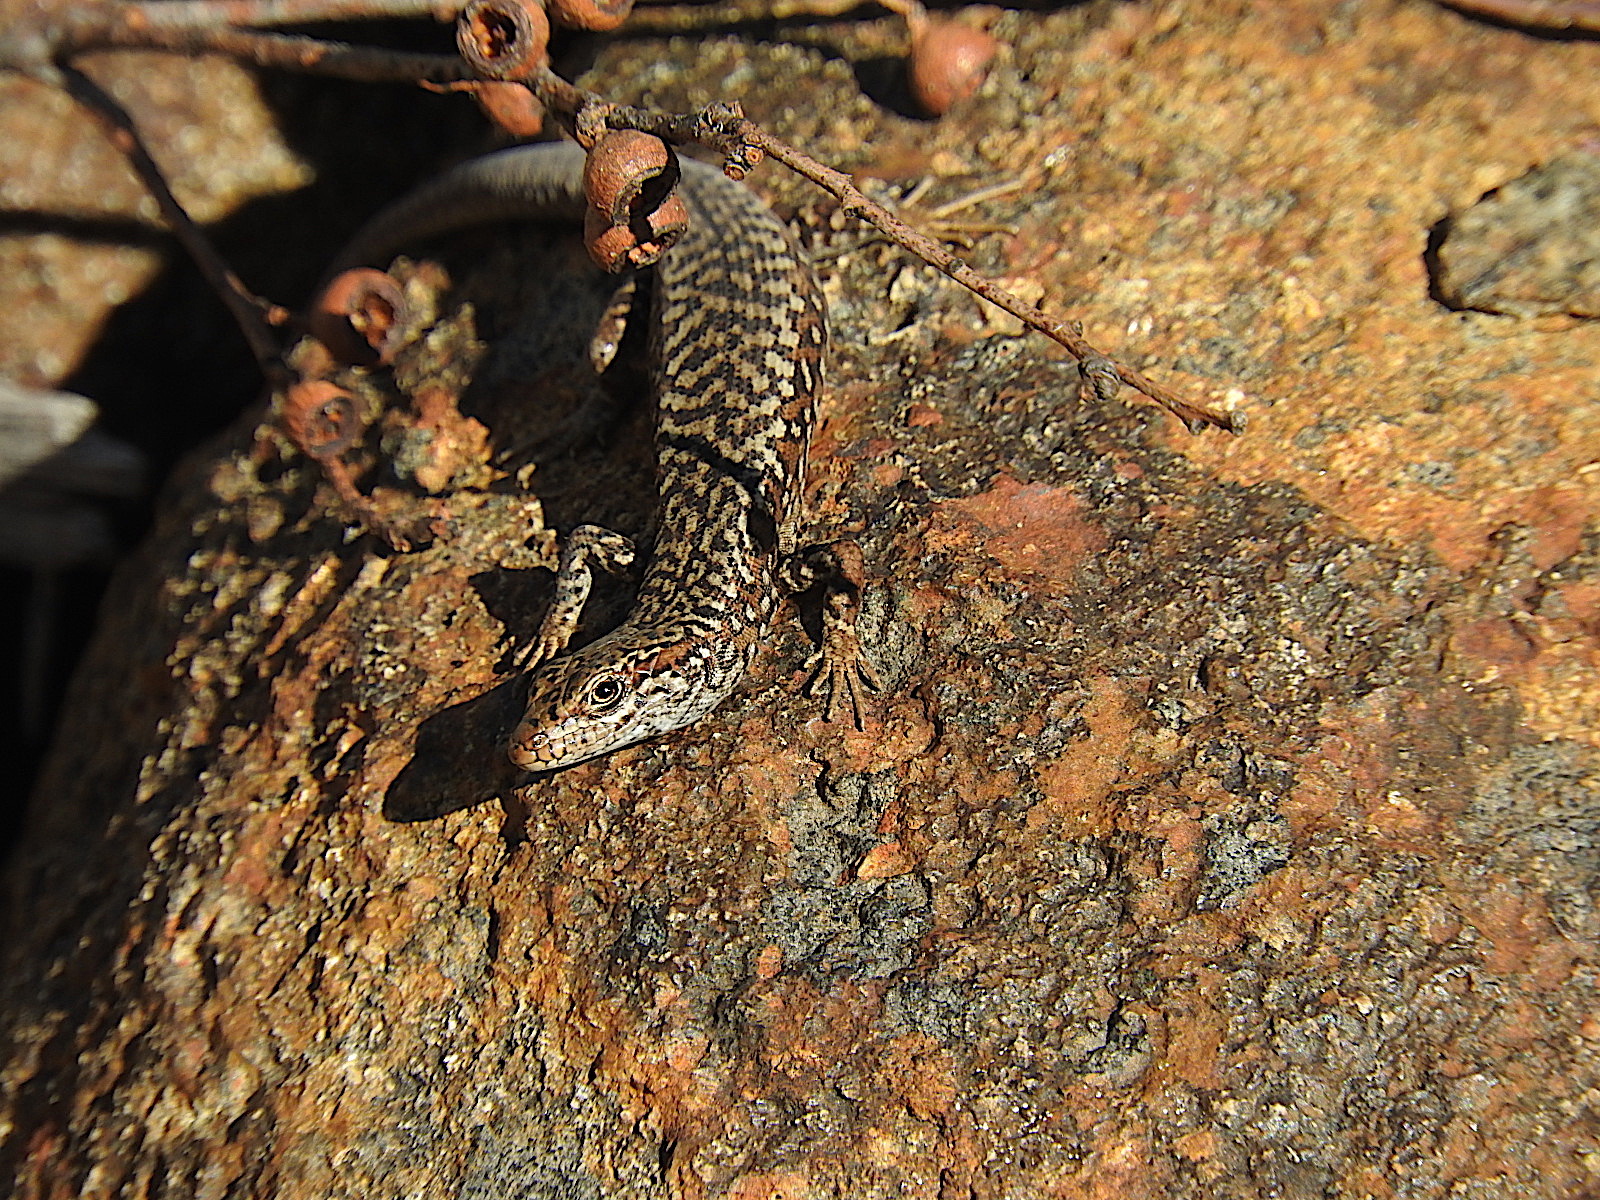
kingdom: Animalia
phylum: Chordata
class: Squamata
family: Scincidae
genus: Carinascincus
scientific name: Carinascincus ocellatus
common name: Ocellated cool-skink
